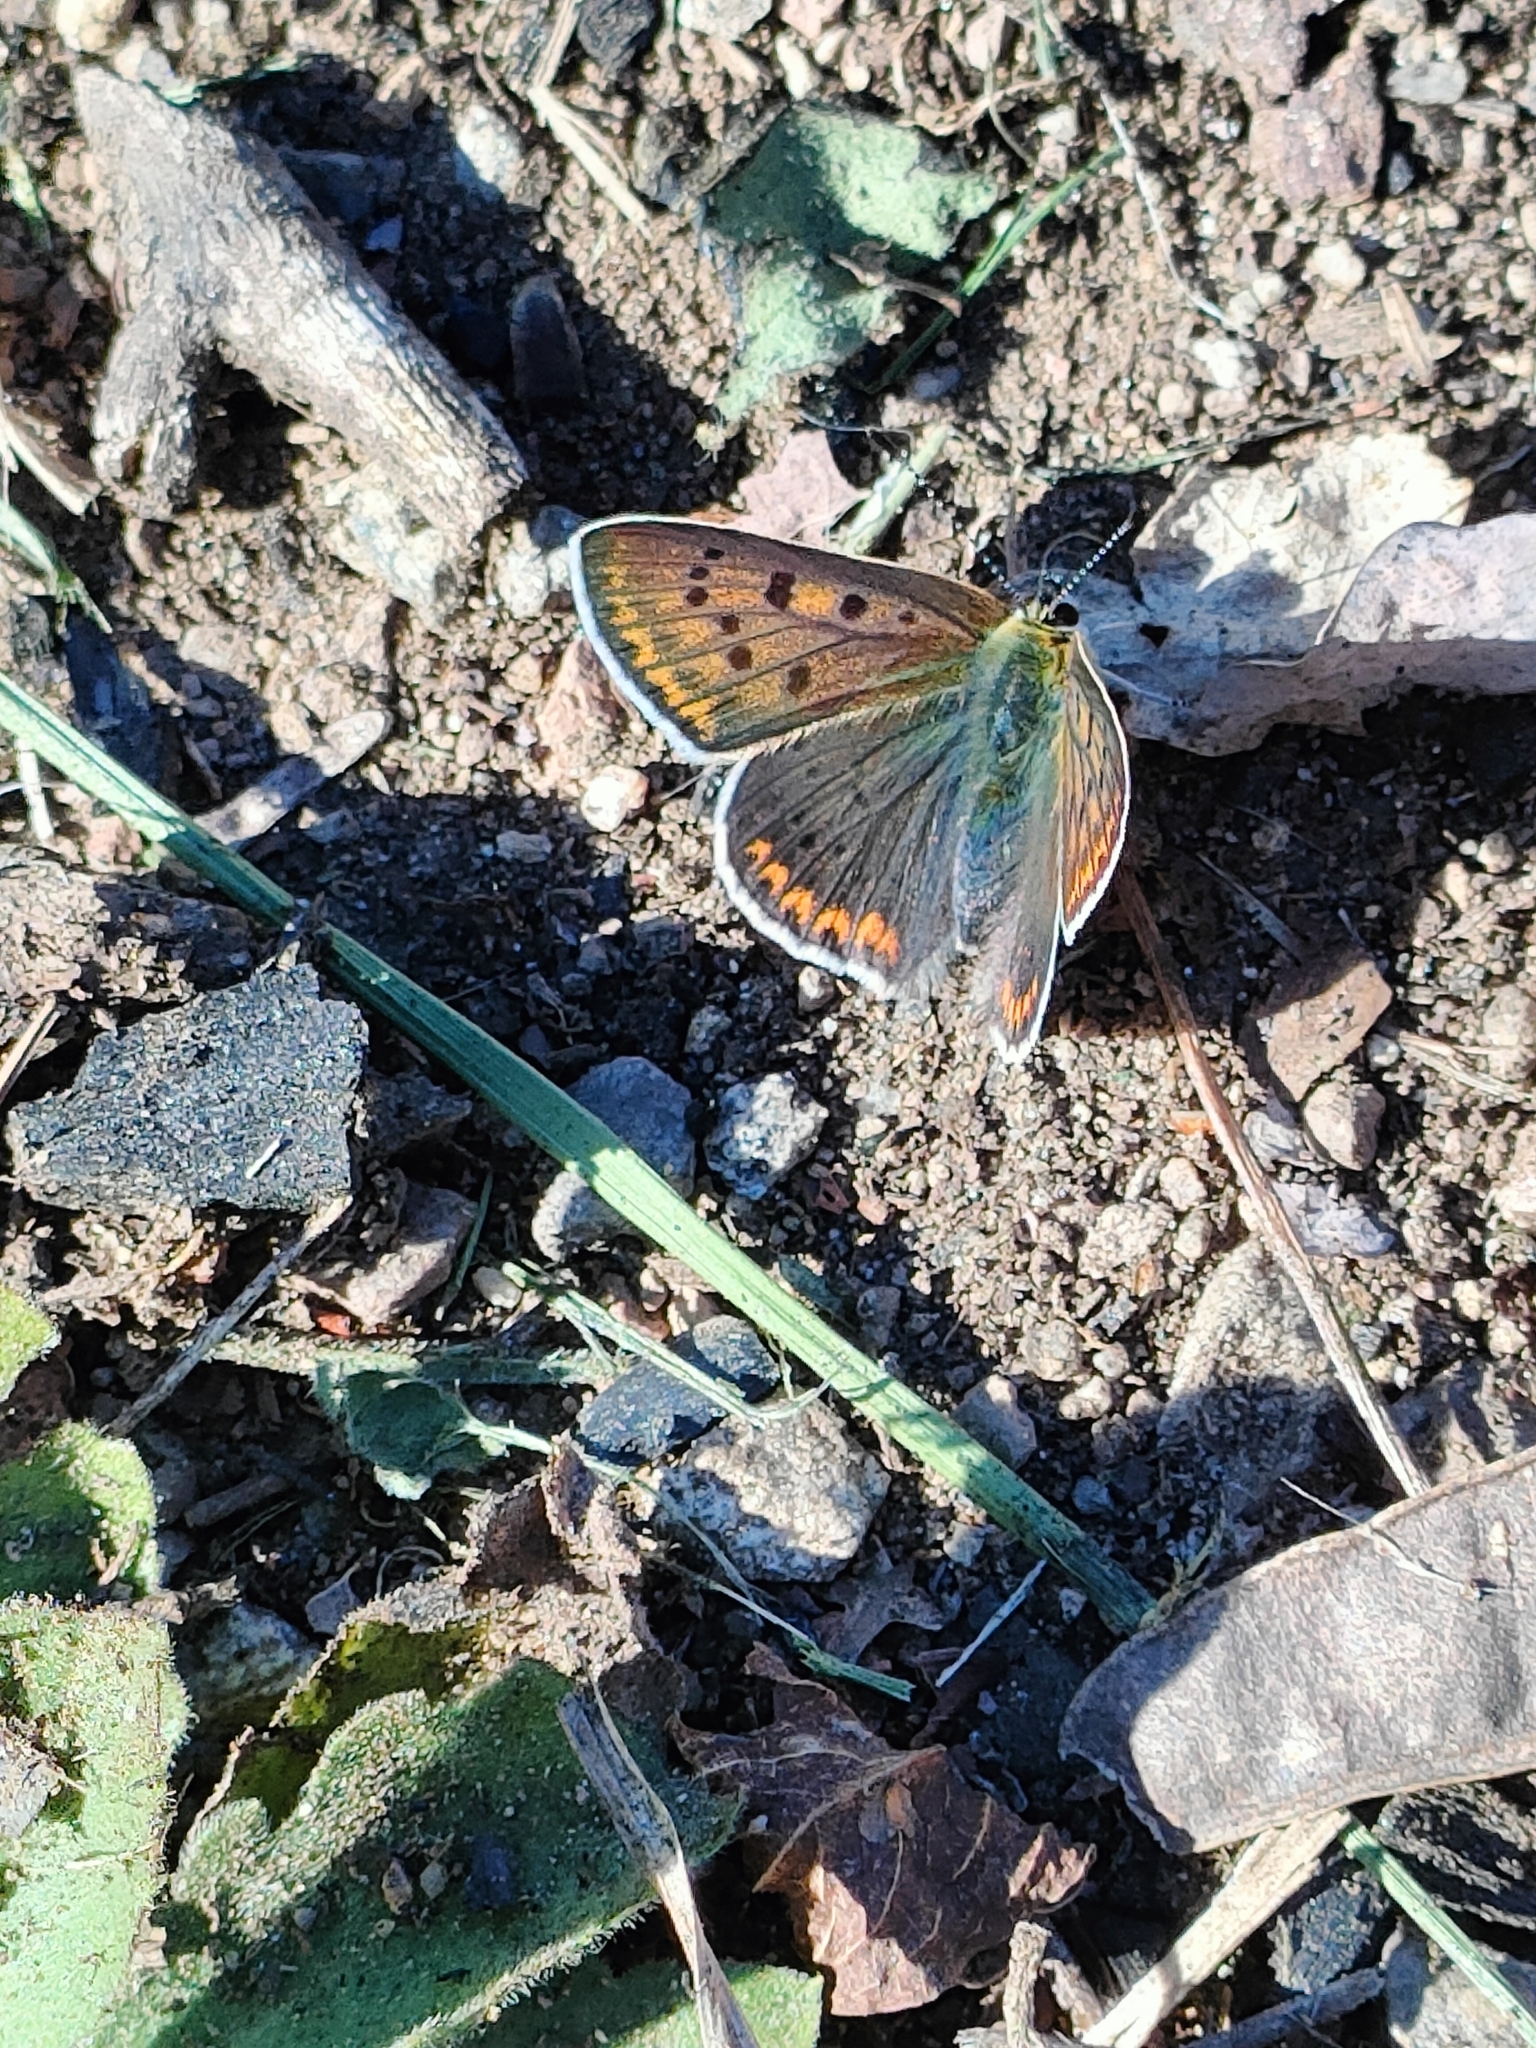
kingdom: Animalia
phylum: Arthropoda
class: Insecta
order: Lepidoptera
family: Lycaenidae
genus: Loweia
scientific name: Loweia tityrus
